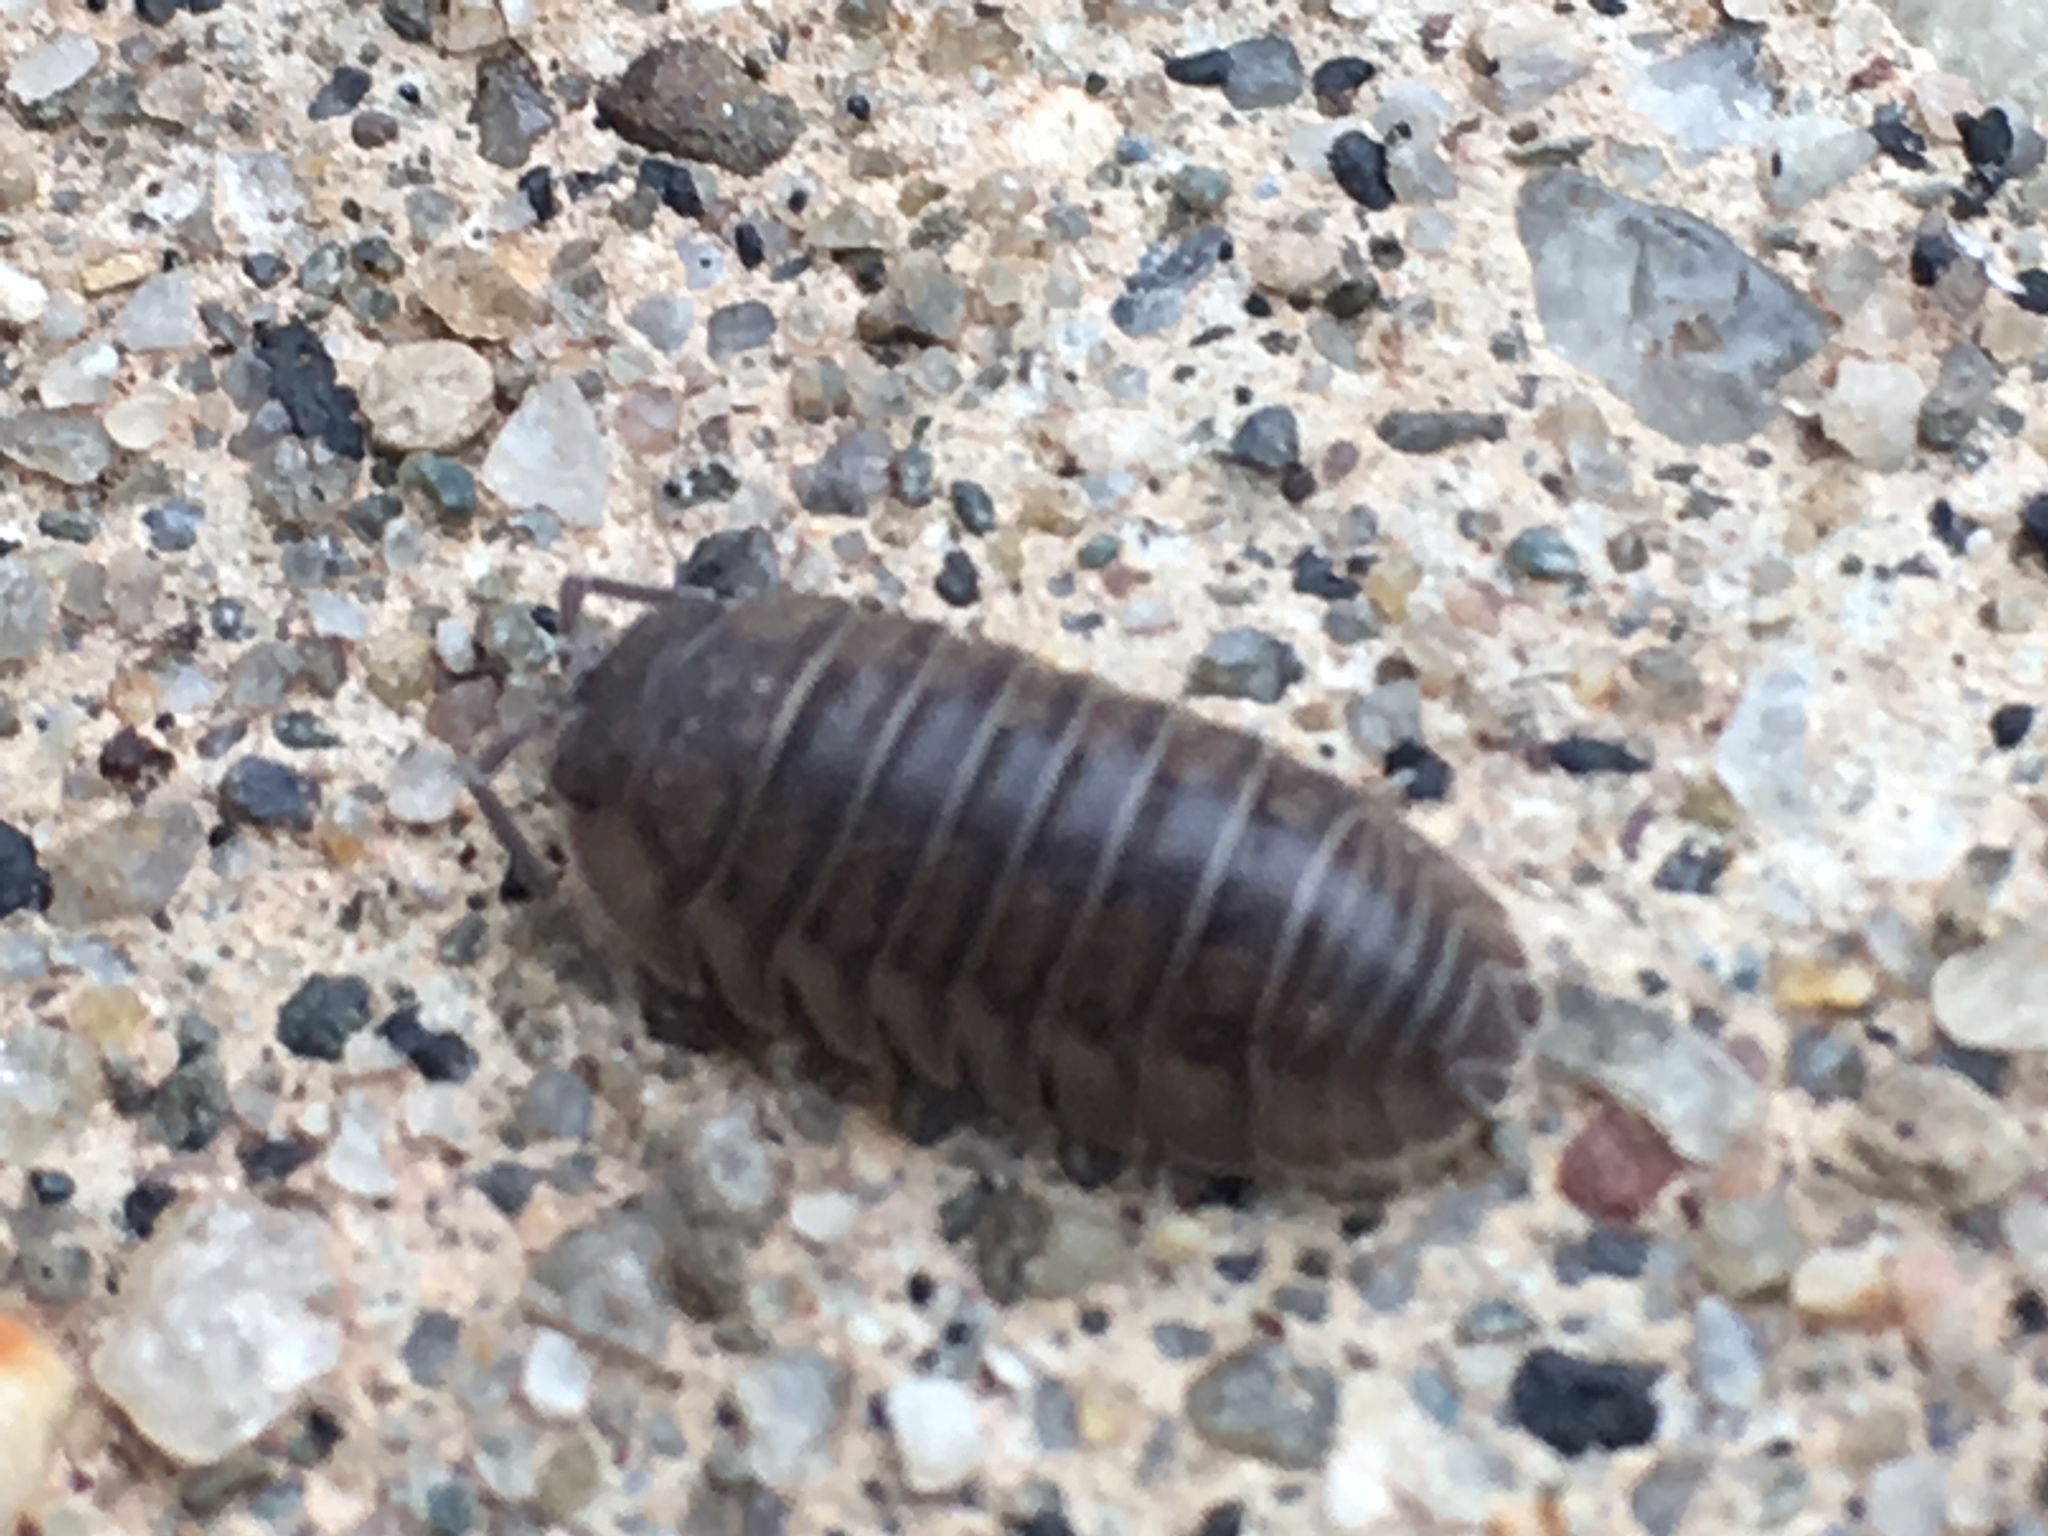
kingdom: Animalia
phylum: Arthropoda
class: Malacostraca
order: Isopoda
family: Armadillidiidae
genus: Armadillidium
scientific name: Armadillidium nasatum
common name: Isopod
